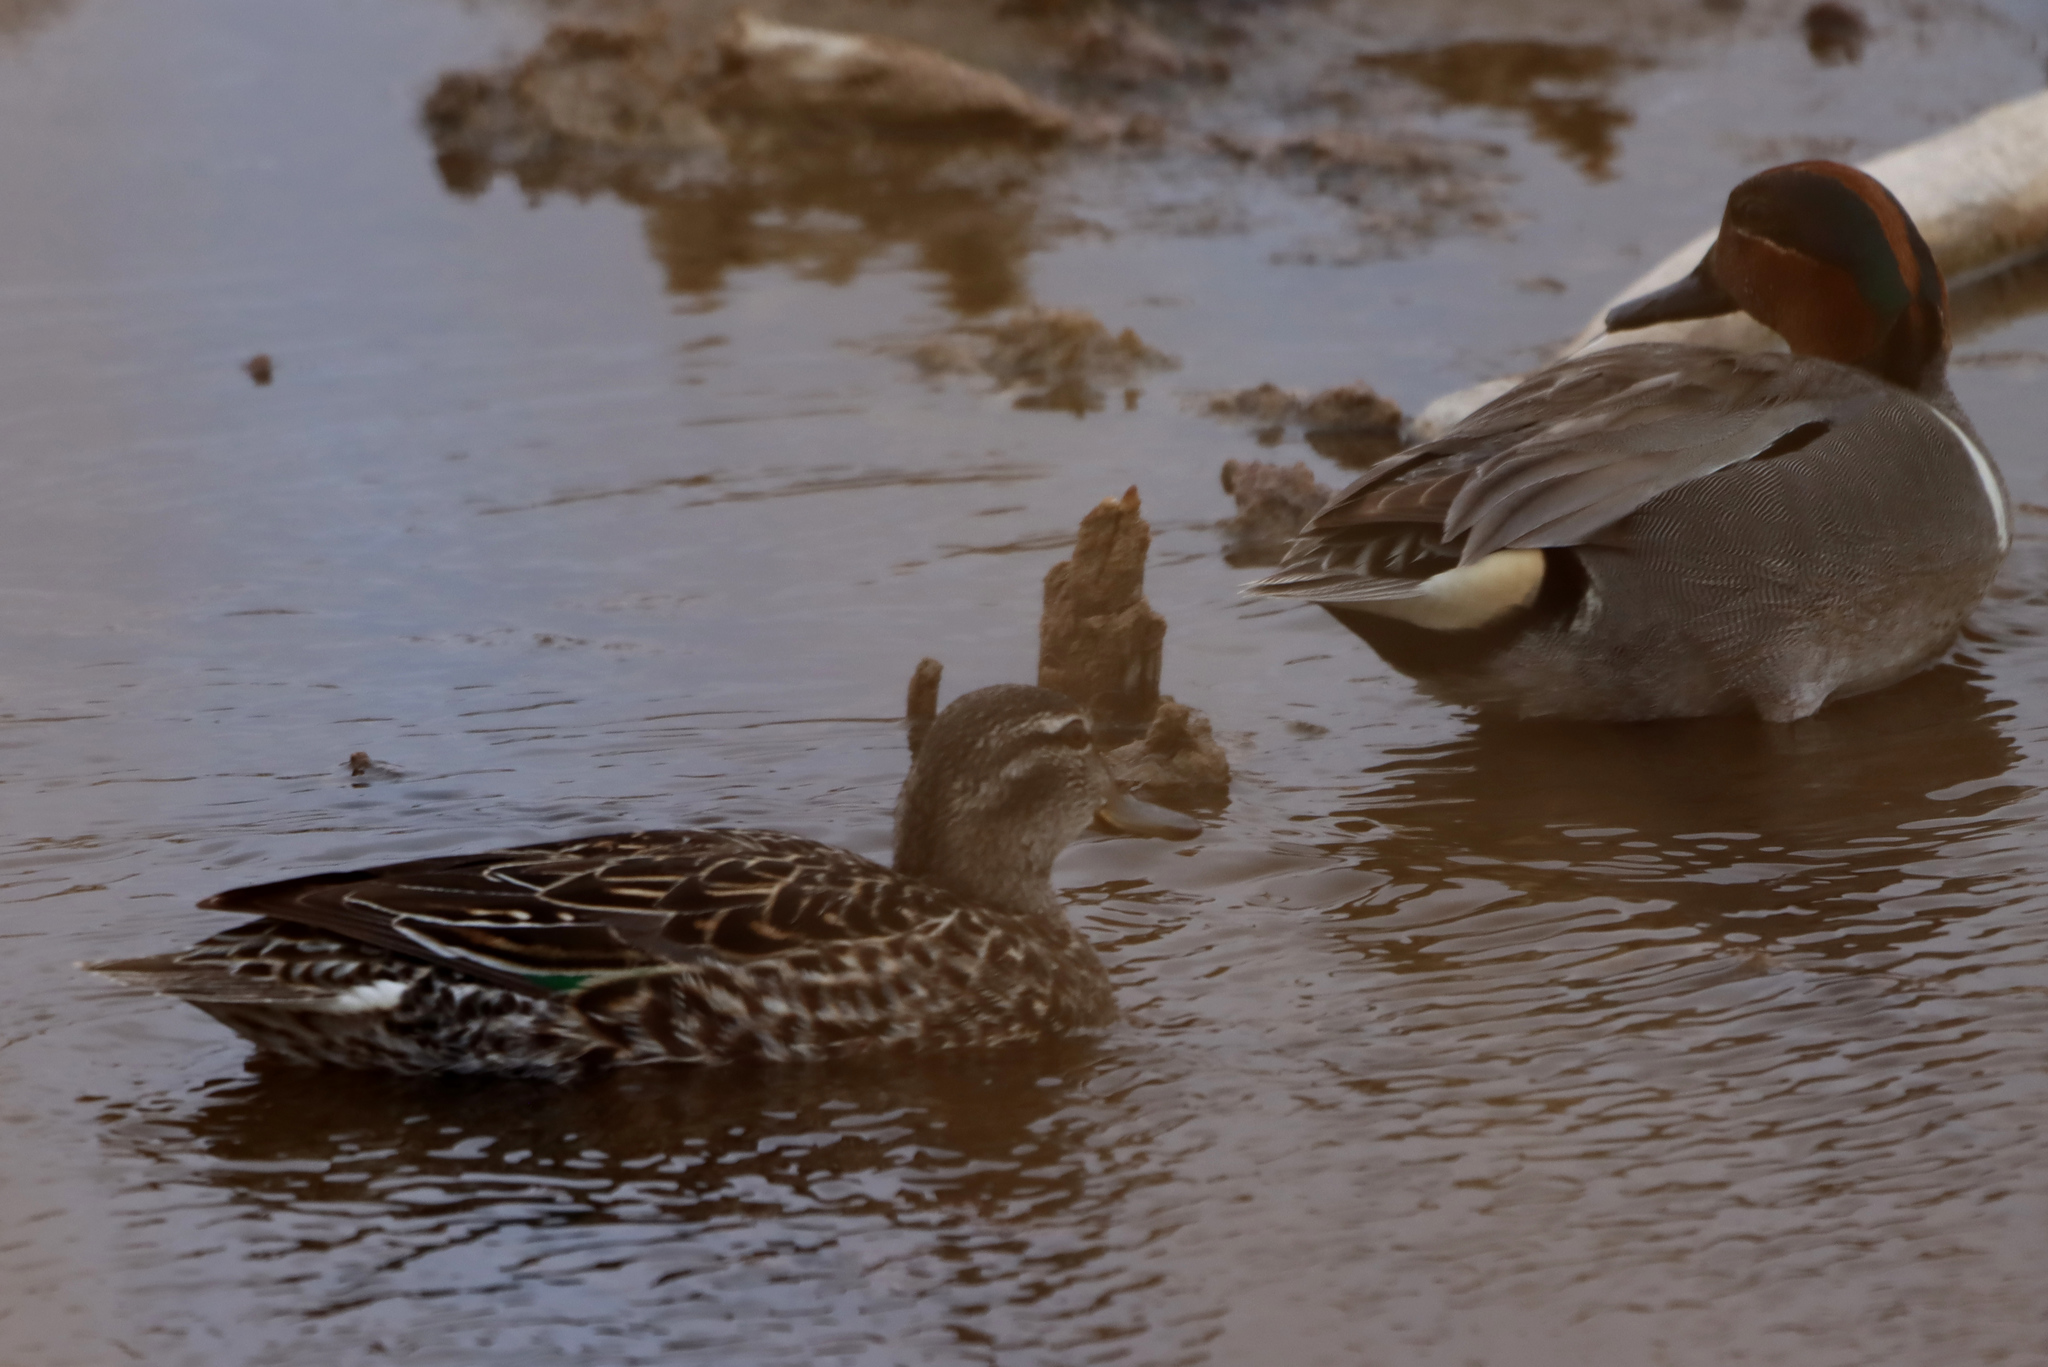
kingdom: Animalia
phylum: Chordata
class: Aves
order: Anseriformes
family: Anatidae
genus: Anas
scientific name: Anas crecca
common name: Eurasian teal
